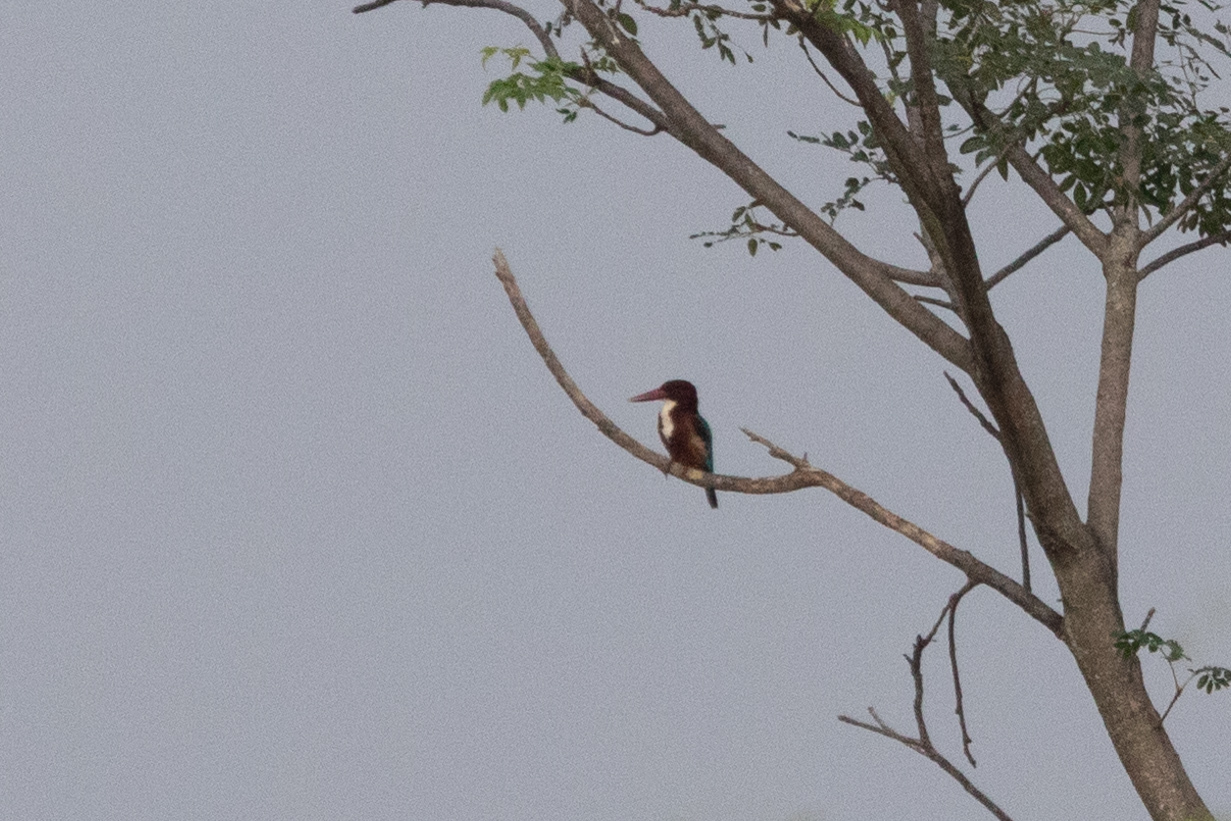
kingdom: Animalia
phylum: Chordata
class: Aves
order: Coraciiformes
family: Alcedinidae
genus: Halcyon
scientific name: Halcyon smyrnensis
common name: White-throated kingfisher
